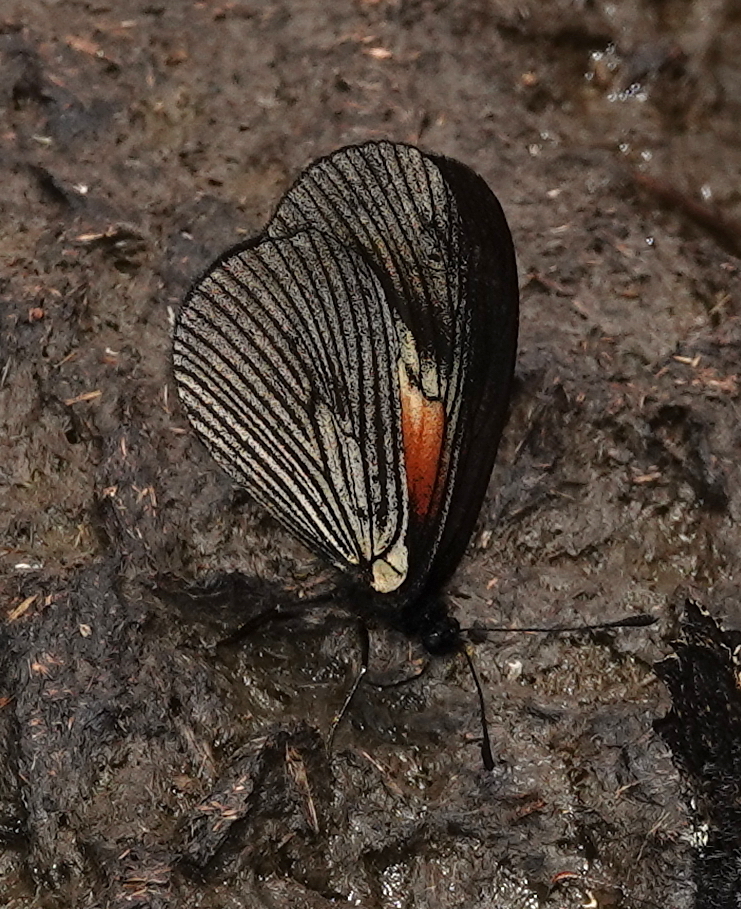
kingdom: Animalia
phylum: Arthropoda
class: Insecta
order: Lepidoptera
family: Nymphalidae
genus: Acraea
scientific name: Acraea Altinote ozomene
